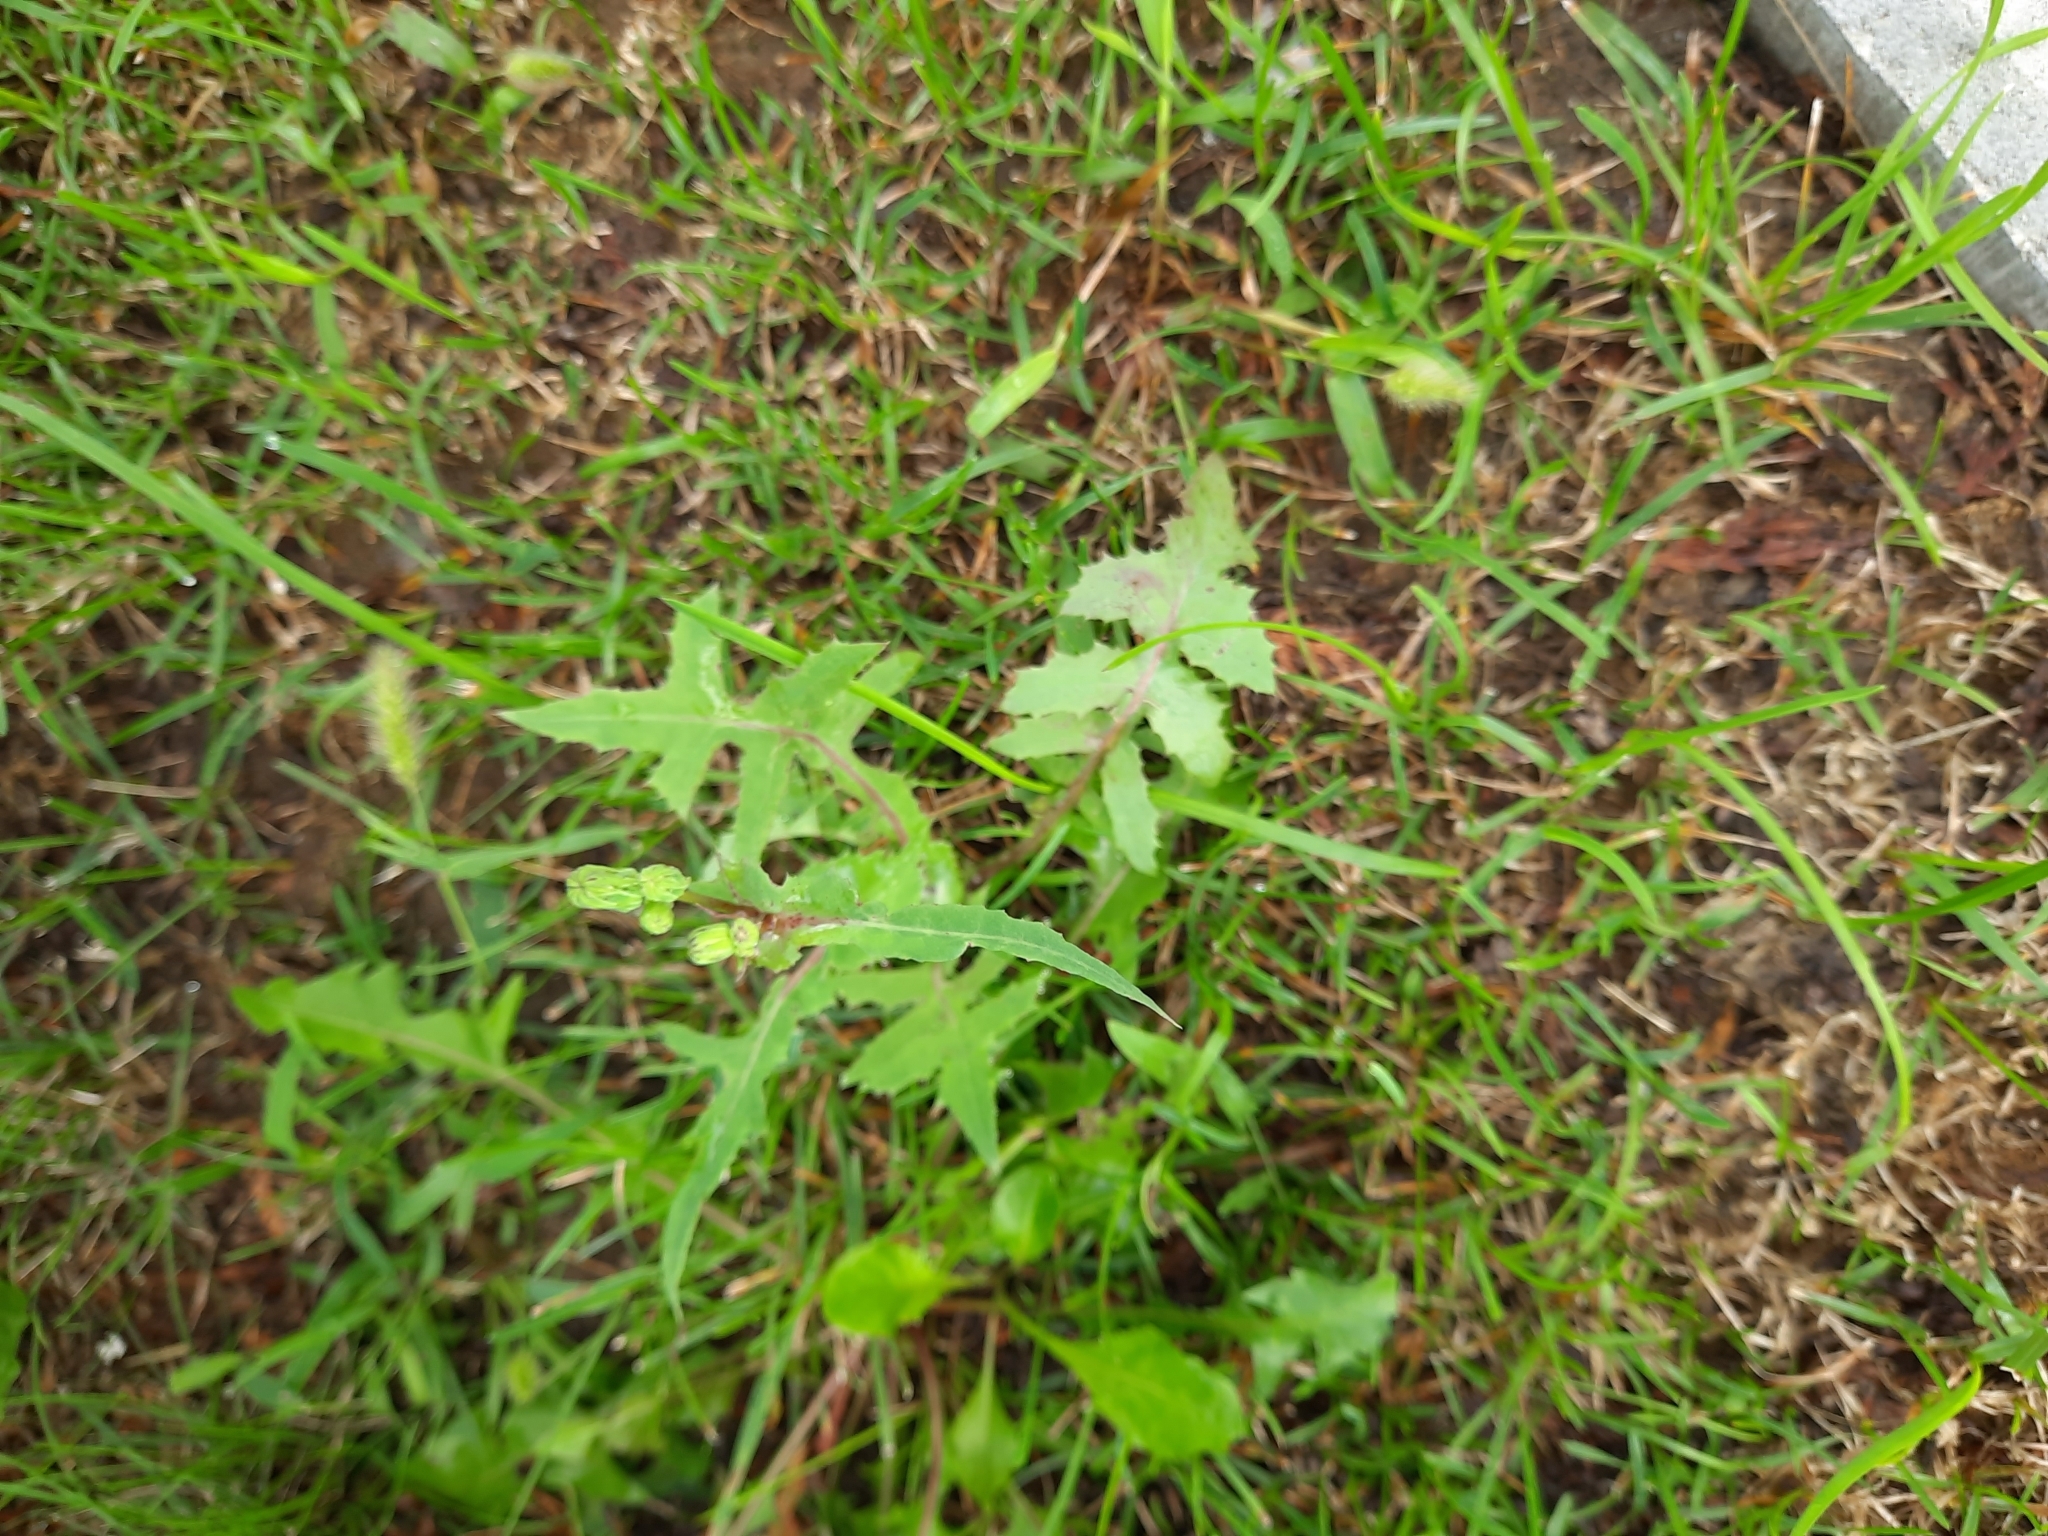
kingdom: Plantae
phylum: Tracheophyta
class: Magnoliopsida
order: Asterales
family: Asteraceae
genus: Sonchus
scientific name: Sonchus oleraceus
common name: Common sowthistle
